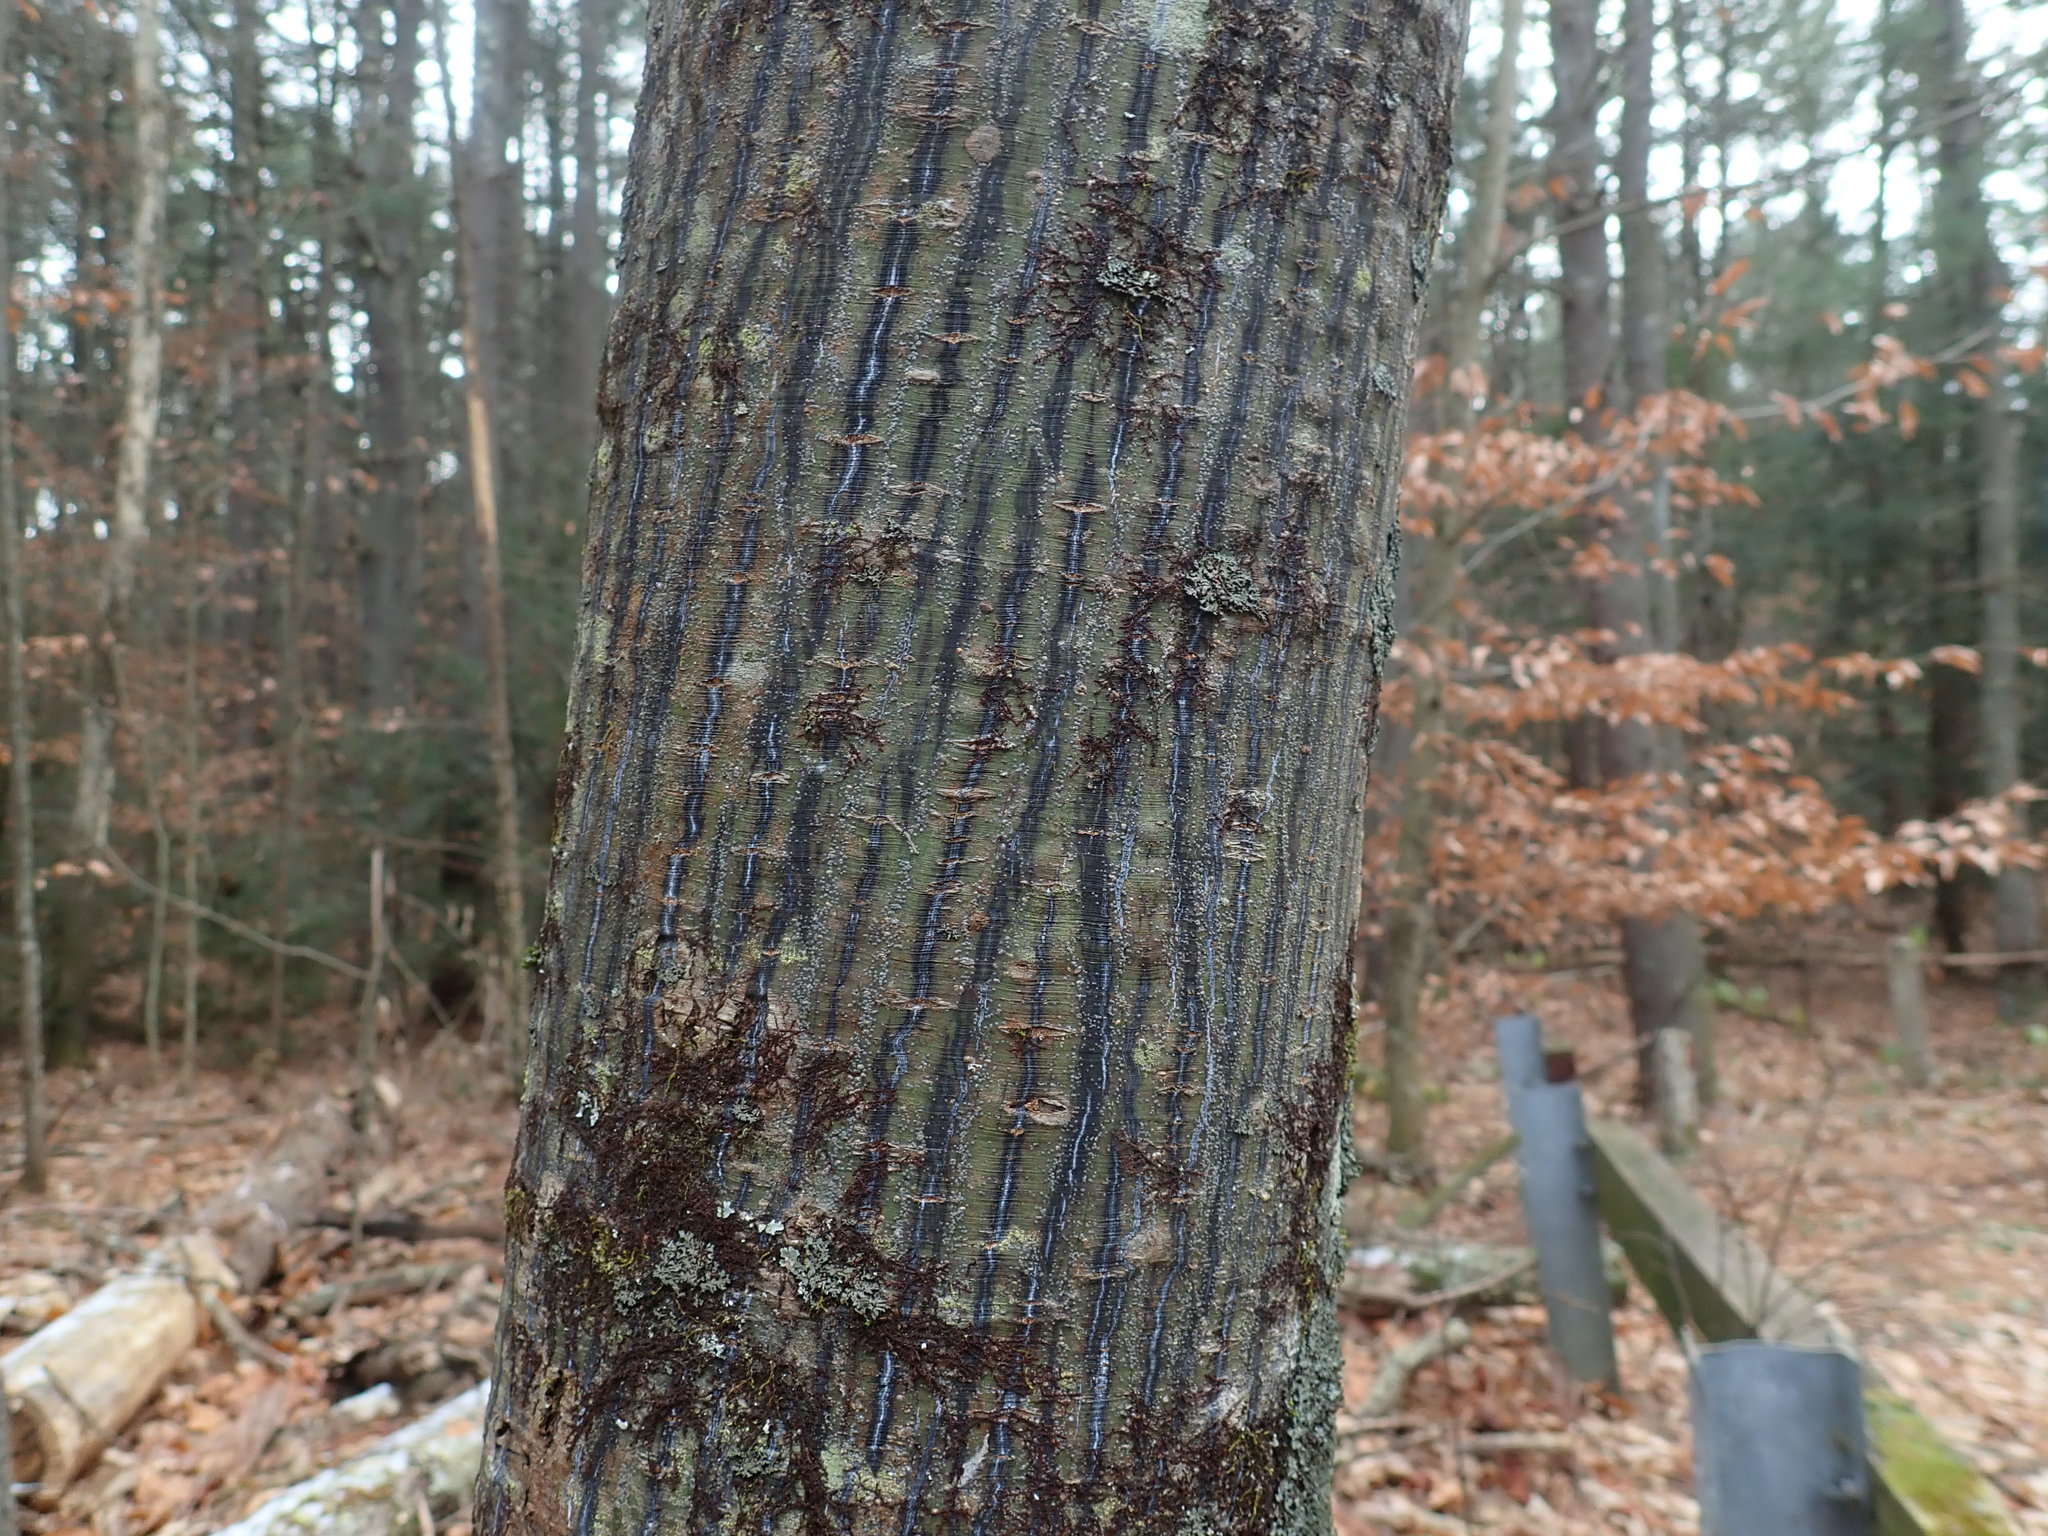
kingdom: Plantae
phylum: Tracheophyta
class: Magnoliopsida
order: Sapindales
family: Sapindaceae
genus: Acer
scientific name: Acer pensylvanicum
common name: Moosewood
